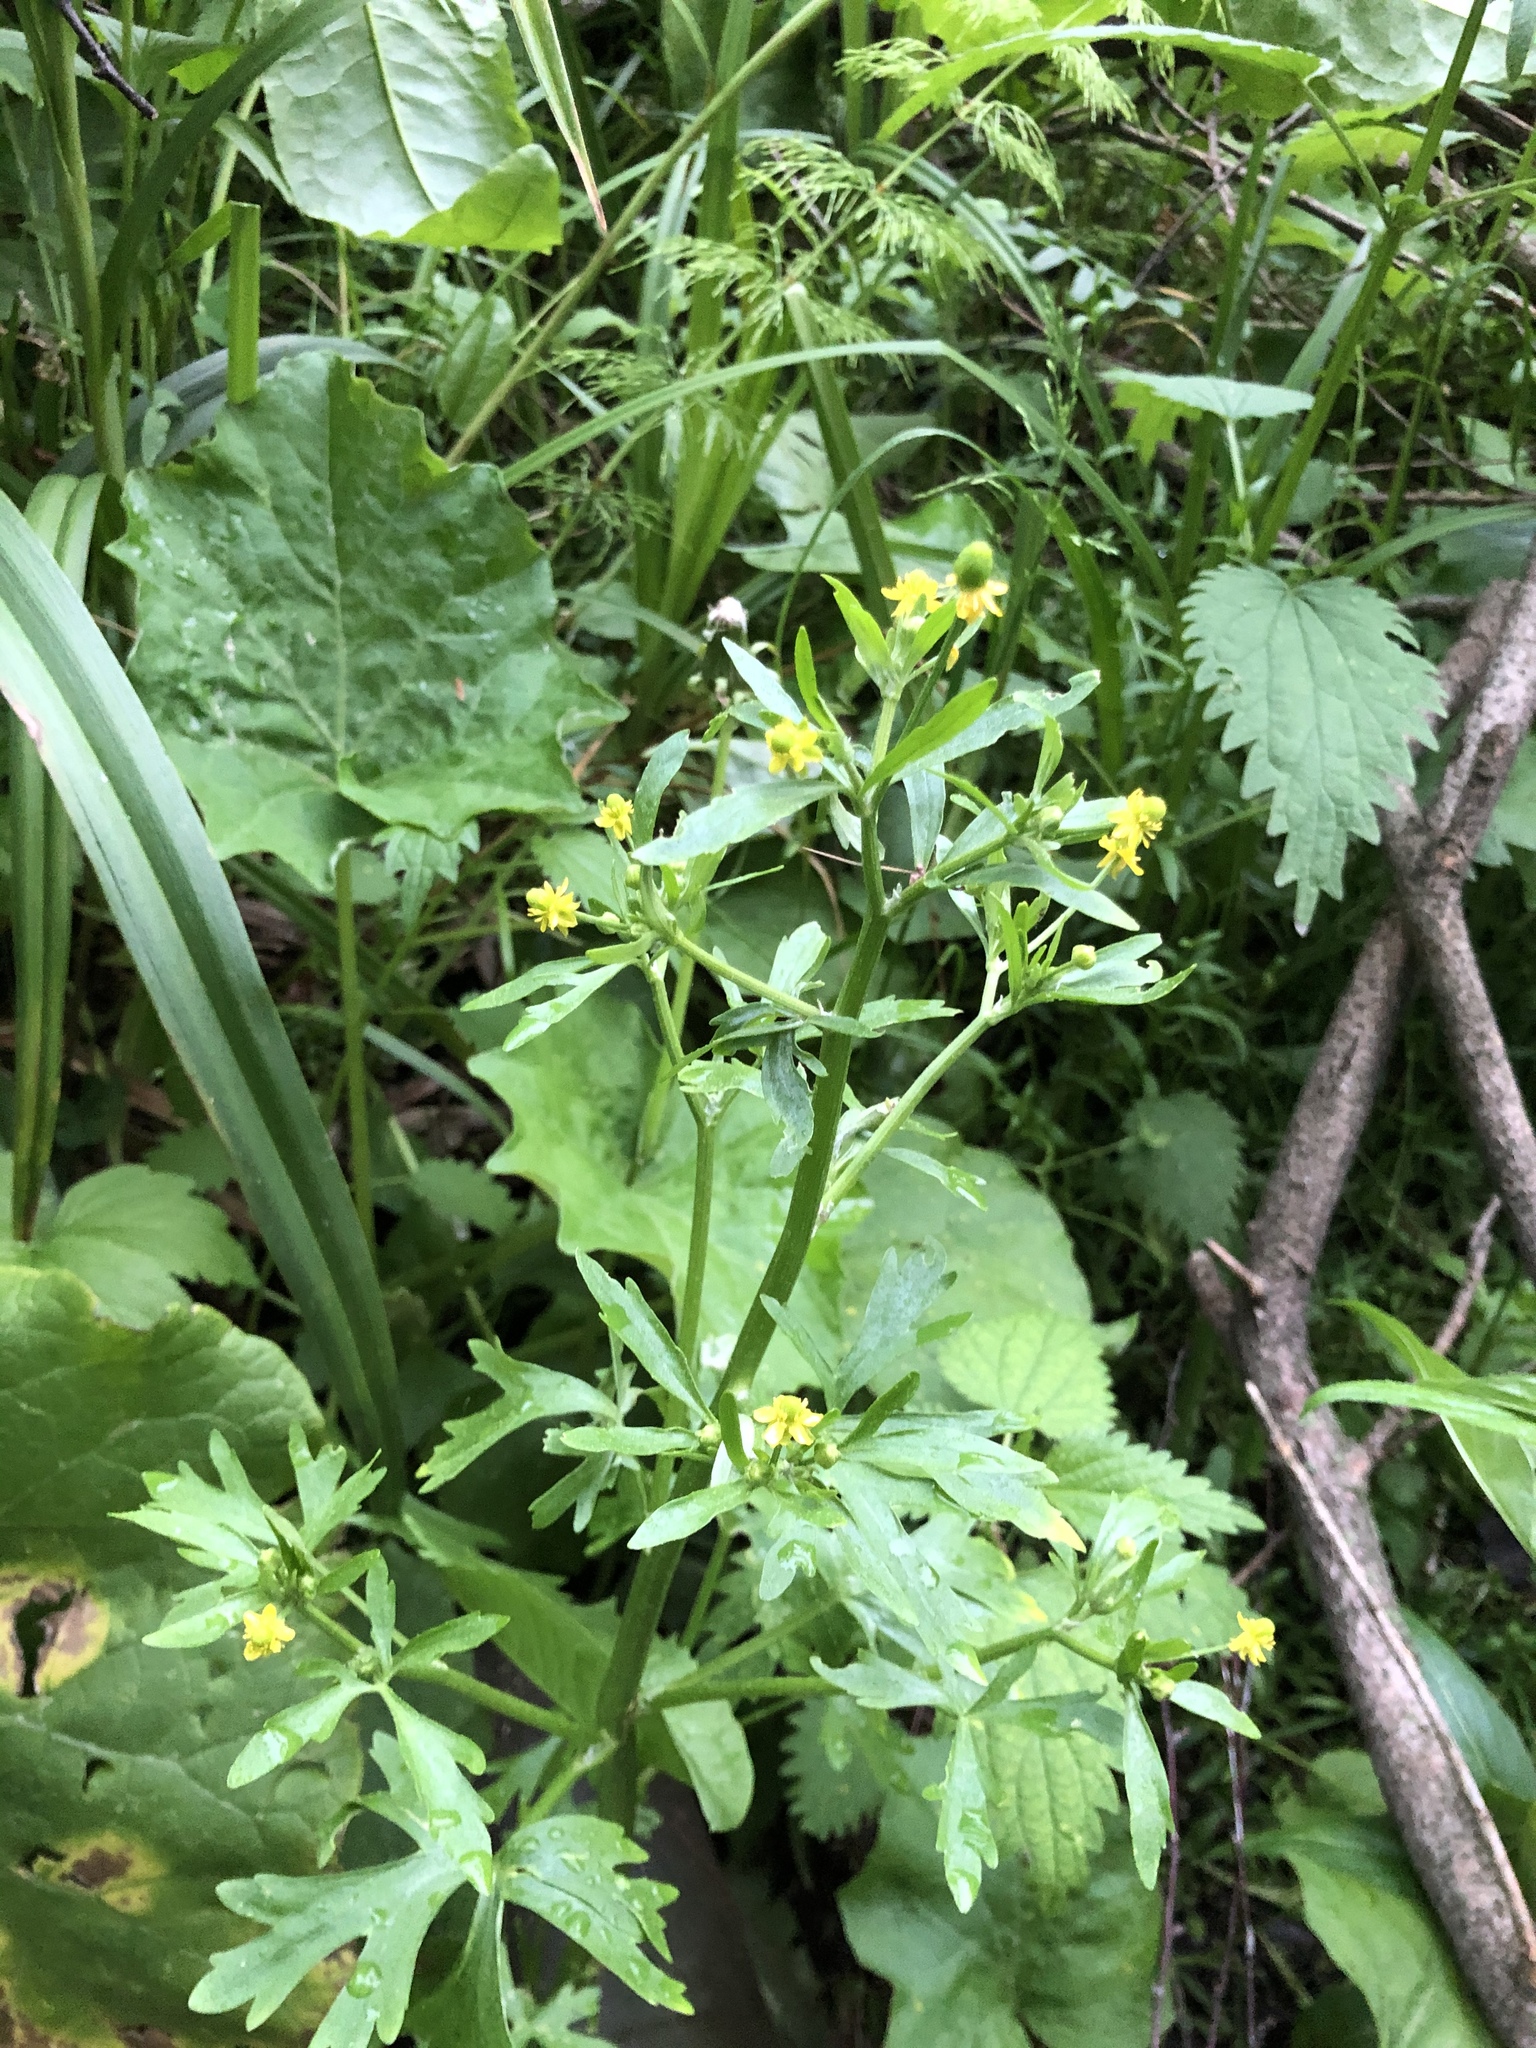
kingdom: Plantae
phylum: Tracheophyta
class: Magnoliopsida
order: Ranunculales
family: Ranunculaceae
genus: Ranunculus
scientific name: Ranunculus sceleratus
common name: Celery-leaved buttercup
